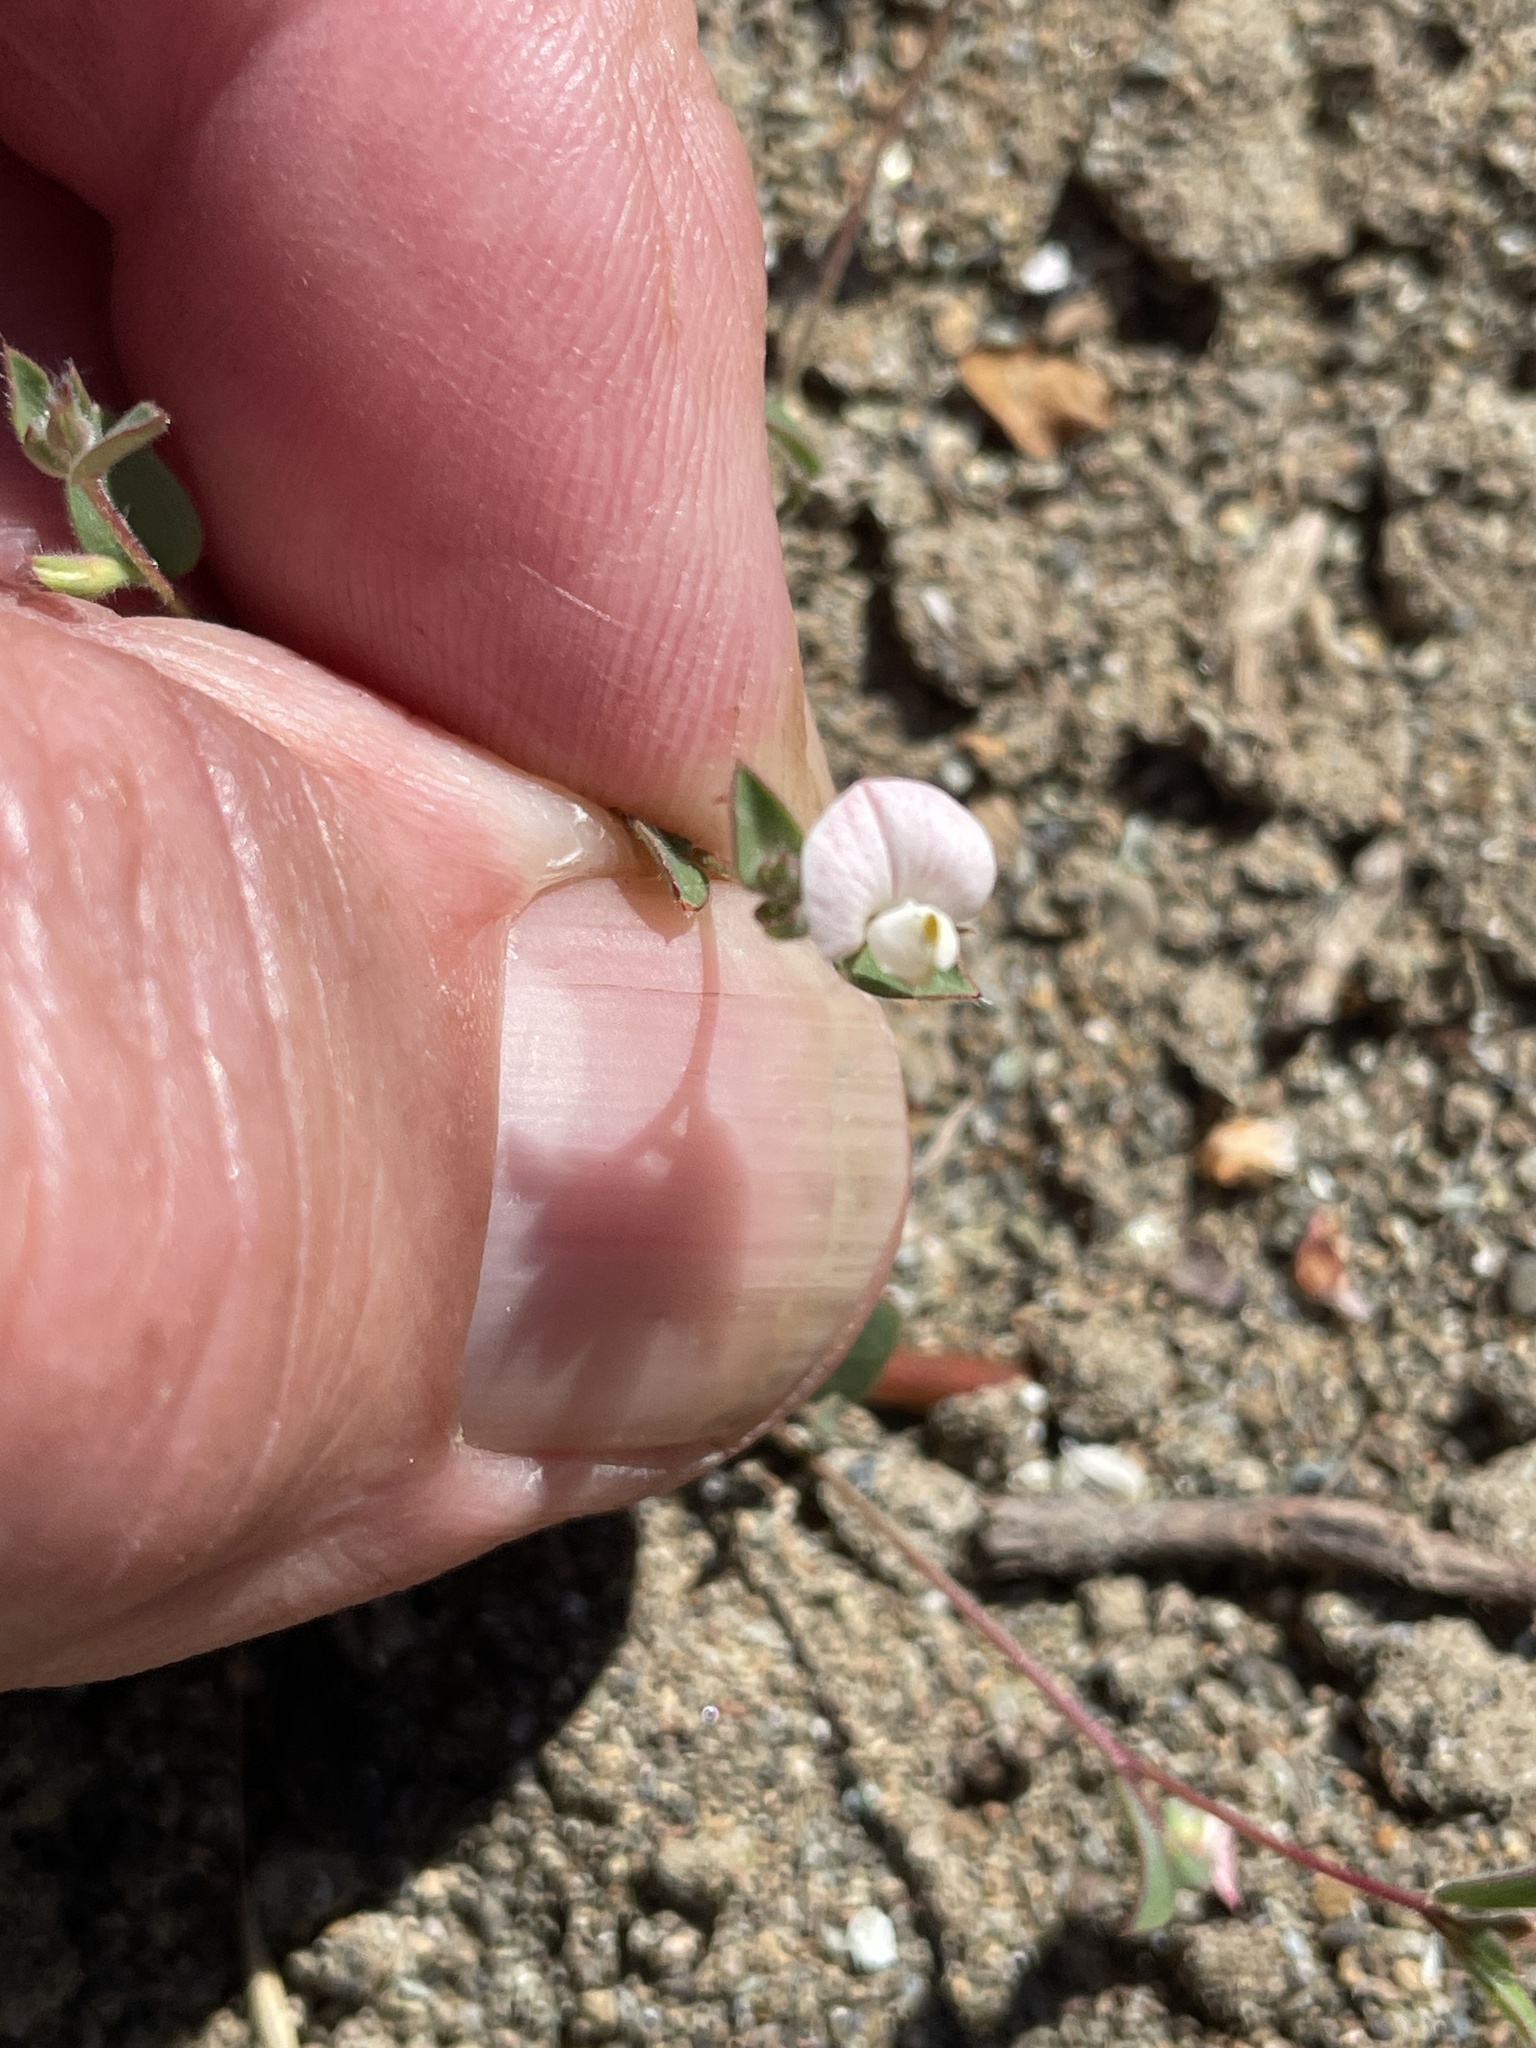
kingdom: Plantae
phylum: Tracheophyta
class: Magnoliopsida
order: Fabales
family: Fabaceae
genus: Acmispon
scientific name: Acmispon americanus
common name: American bird's-foot trefoil
